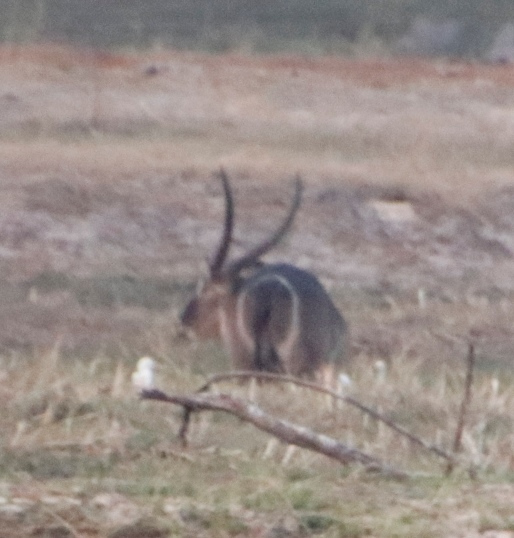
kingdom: Animalia
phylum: Chordata
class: Mammalia
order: Artiodactyla
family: Bovidae
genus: Kobus
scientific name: Kobus ellipsiprymnus
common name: Waterbuck
